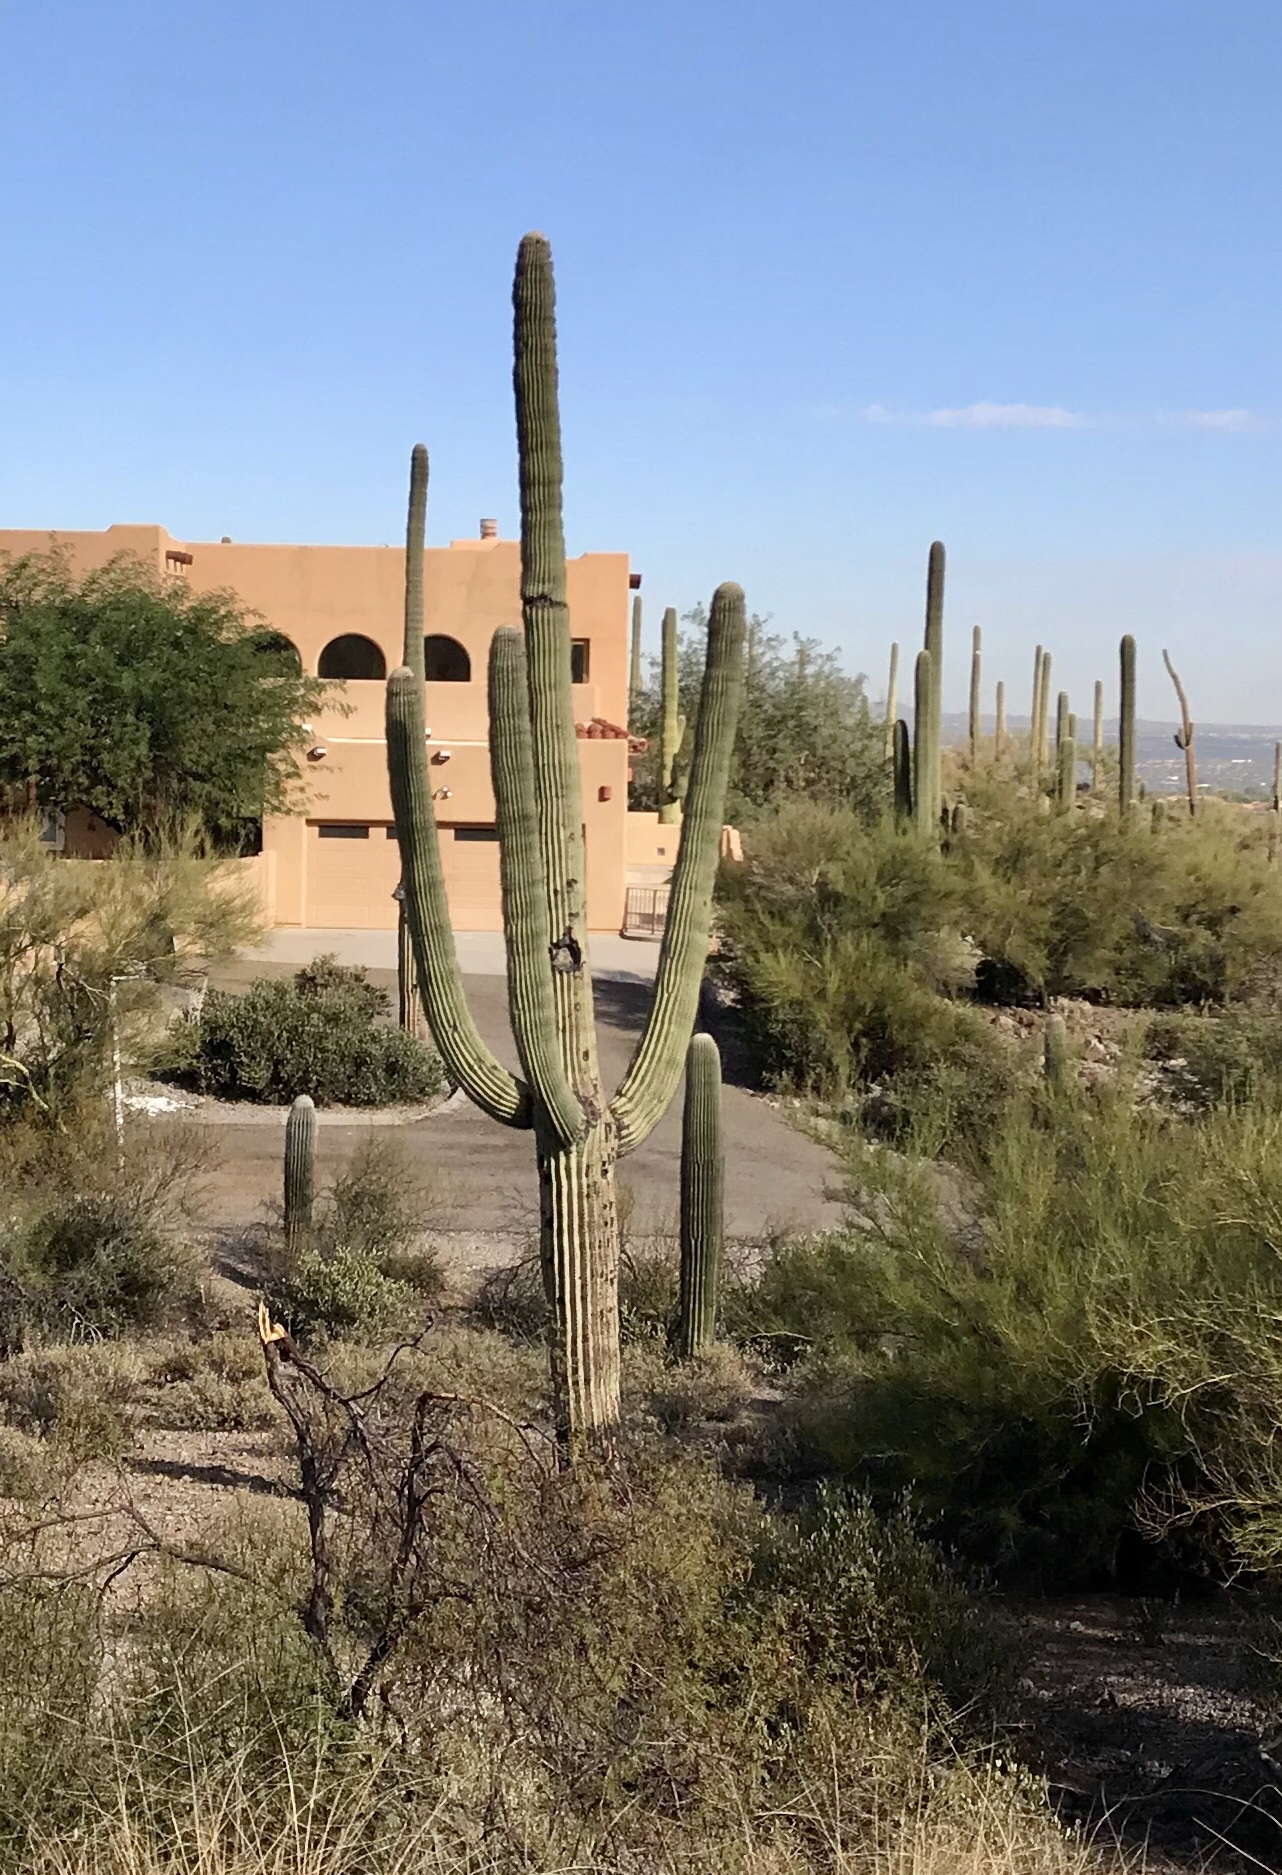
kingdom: Plantae
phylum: Tracheophyta
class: Magnoliopsida
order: Caryophyllales
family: Cactaceae
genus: Carnegiea
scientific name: Carnegiea gigantea
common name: Saguaro
